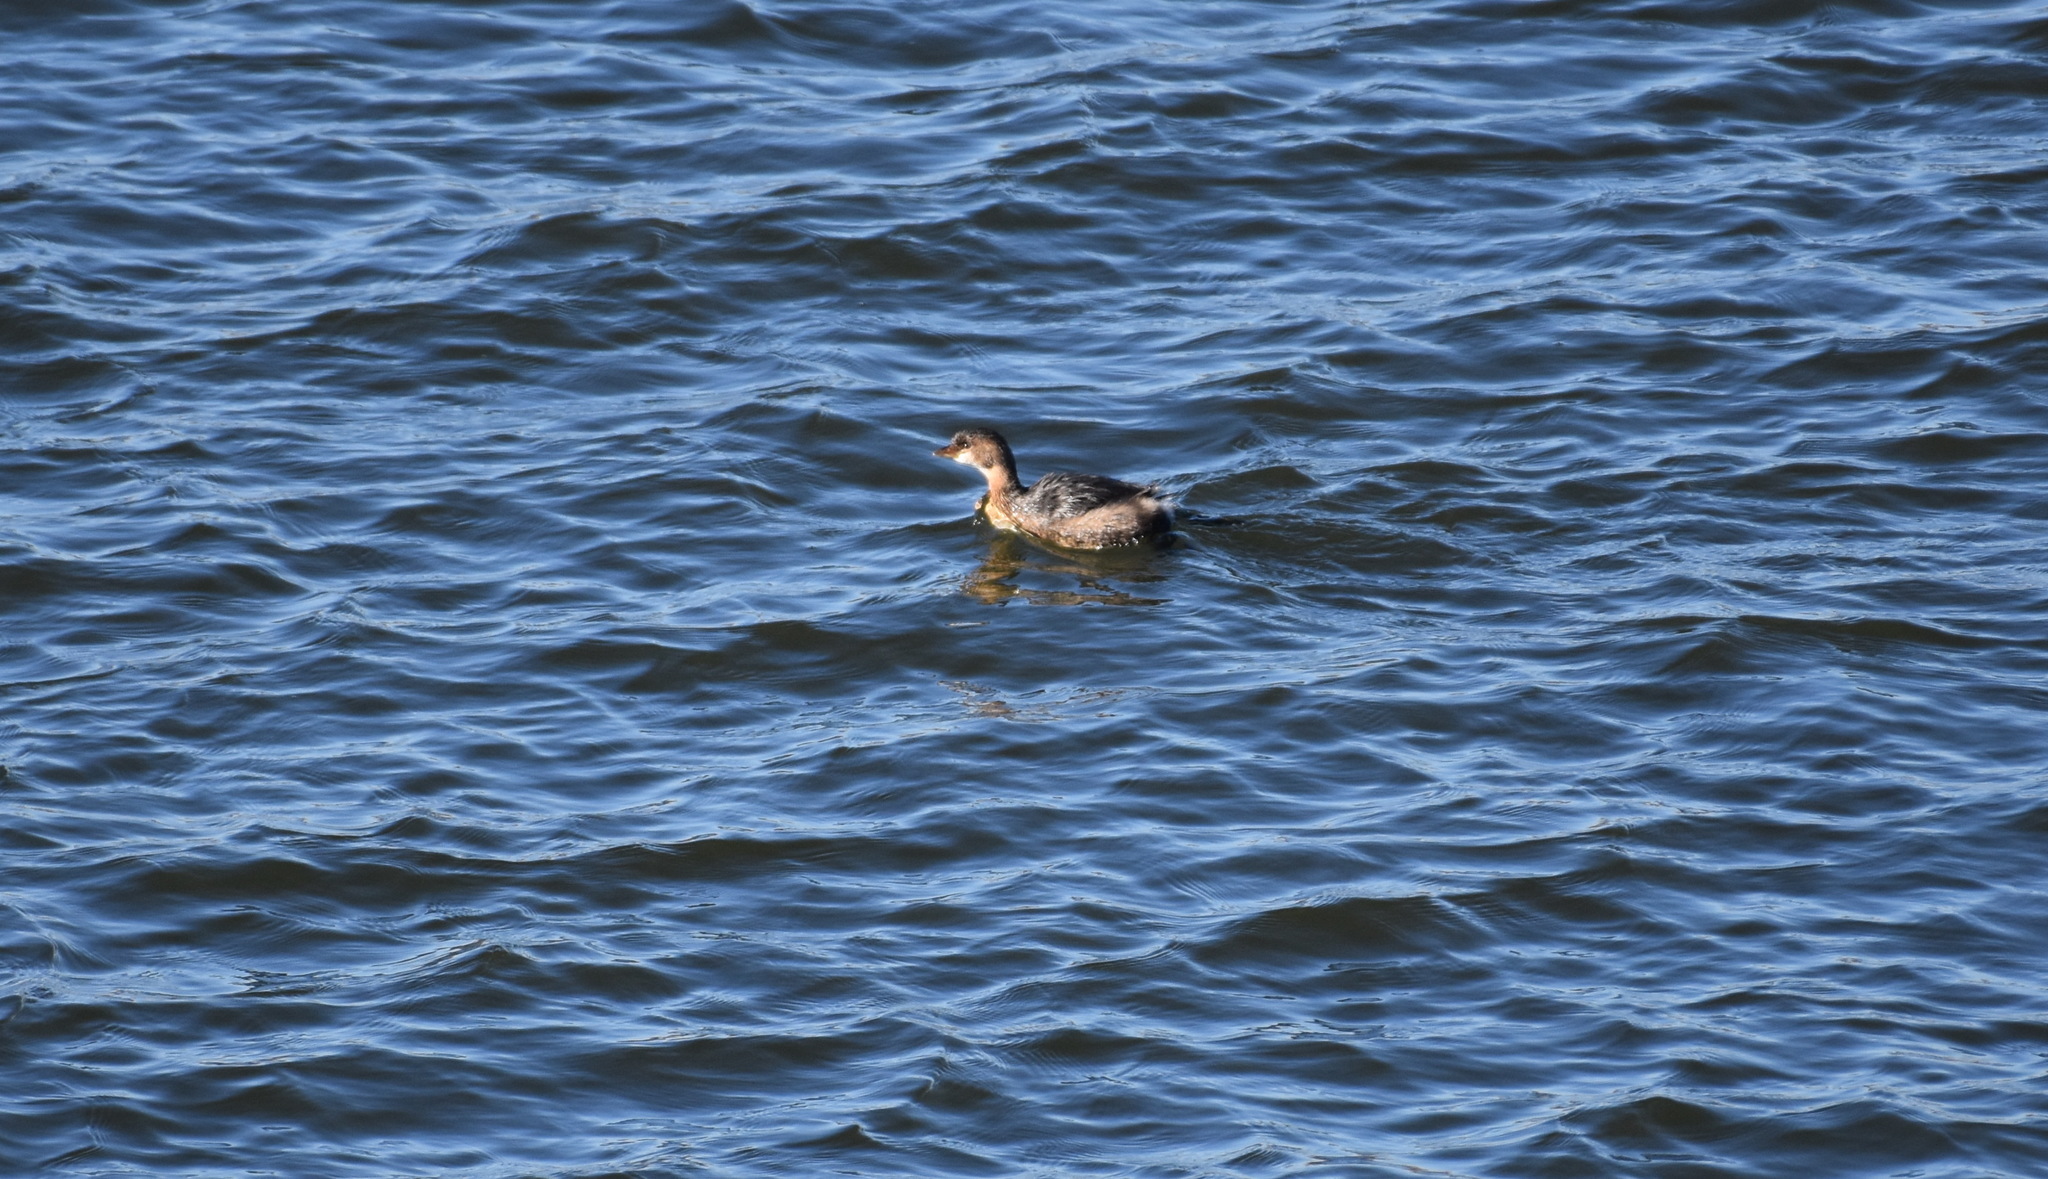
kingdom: Animalia
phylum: Chordata
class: Aves
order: Podicipediformes
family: Podicipedidae
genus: Podilymbus
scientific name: Podilymbus podiceps
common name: Pied-billed grebe
